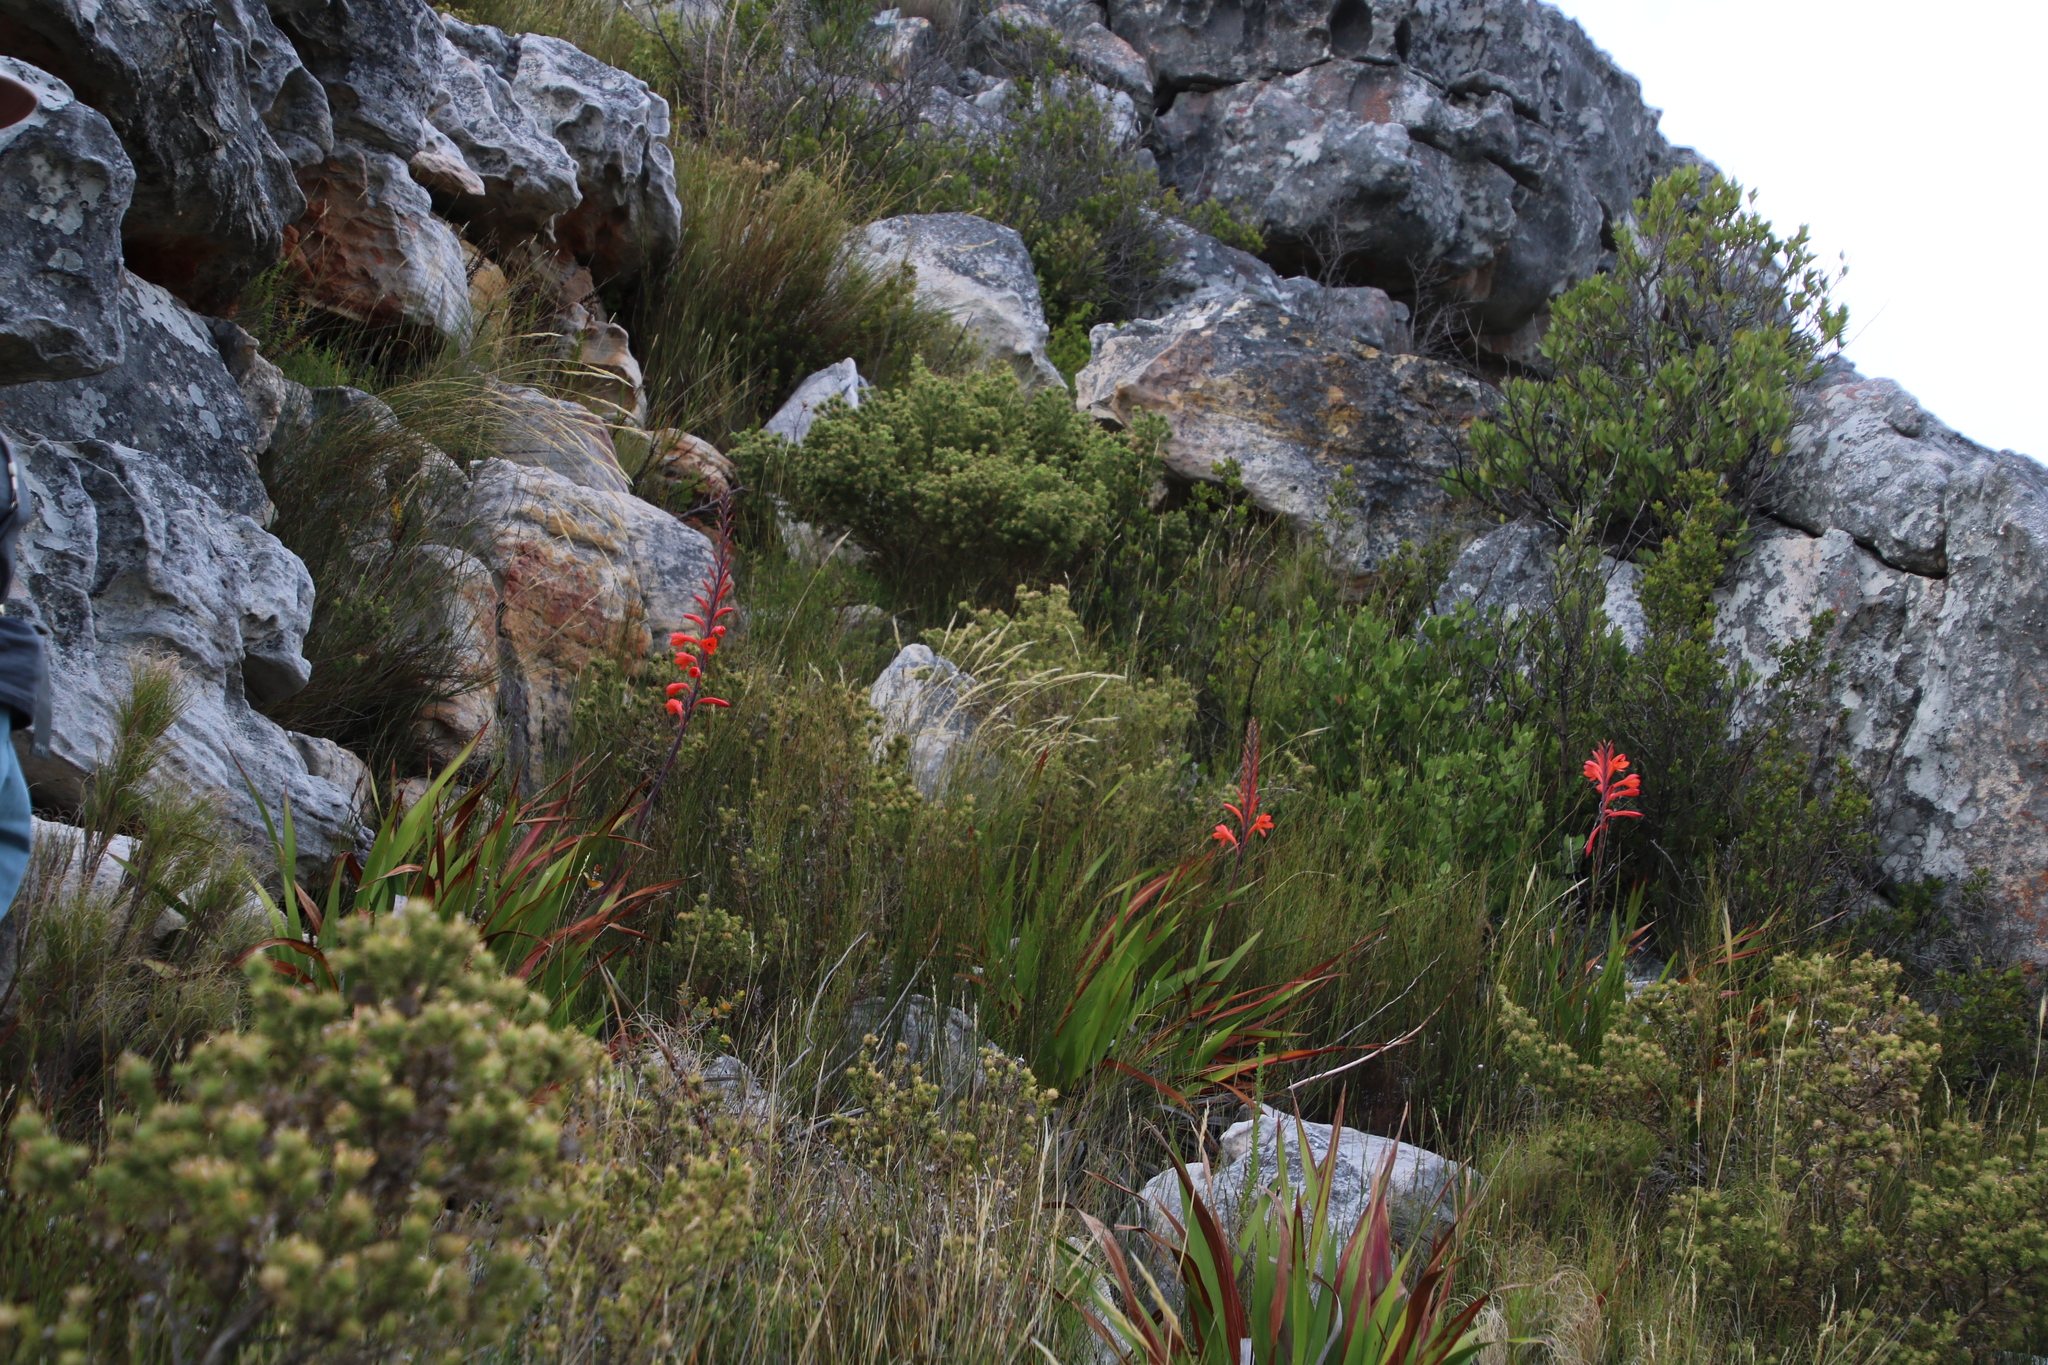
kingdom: Plantae
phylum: Tracheophyta
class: Liliopsida
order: Asparagales
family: Iridaceae
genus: Watsonia
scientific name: Watsonia tabularis
